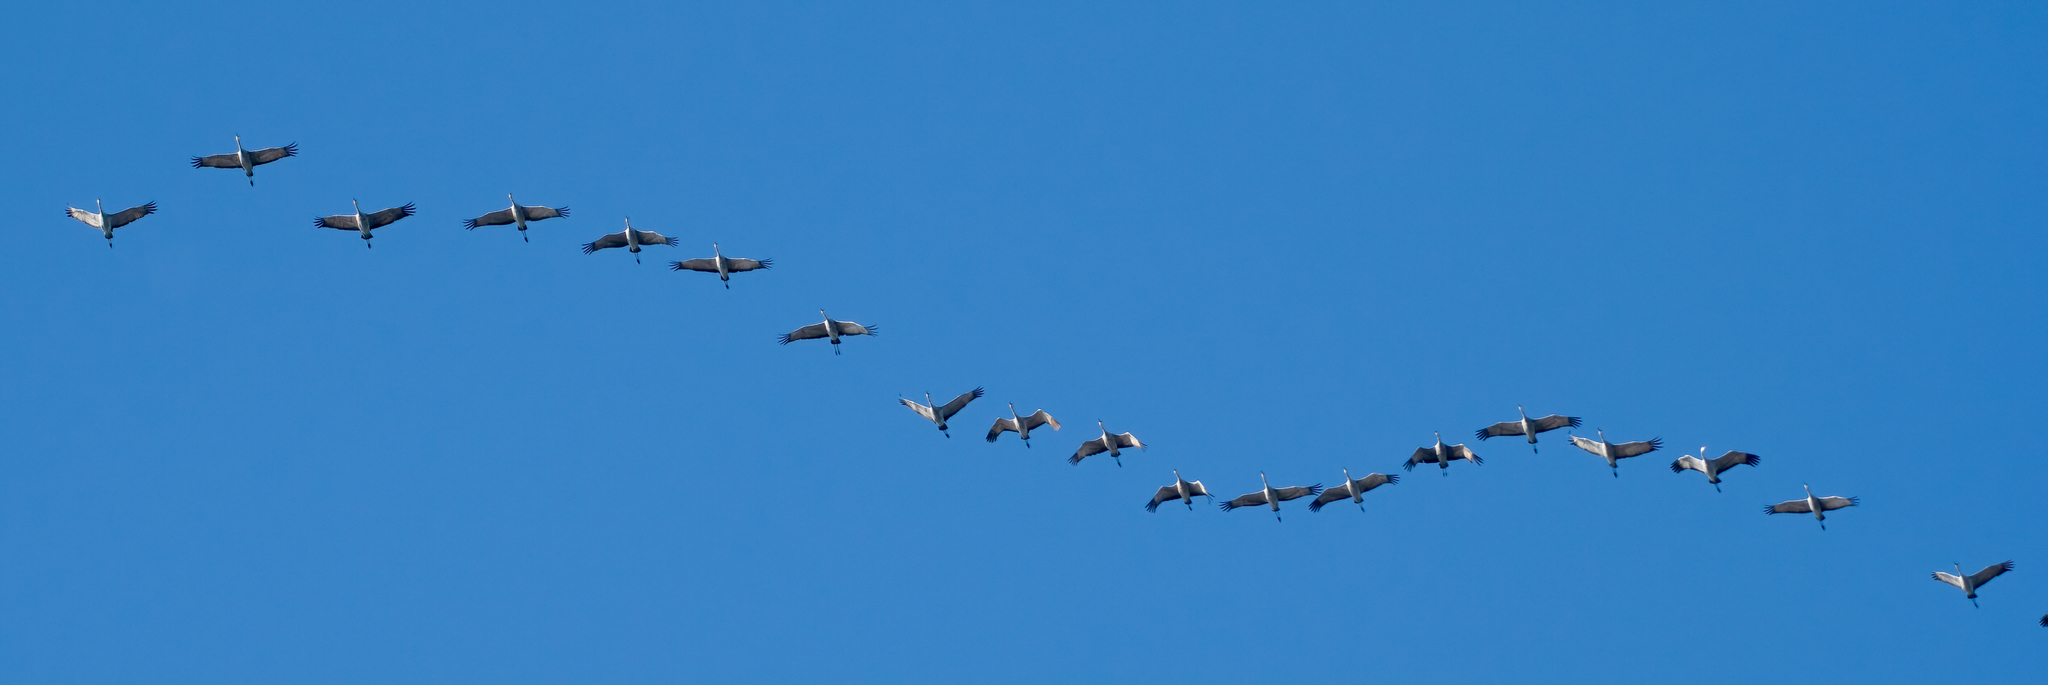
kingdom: Animalia
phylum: Chordata
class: Aves
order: Gruiformes
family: Gruidae
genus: Grus
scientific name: Grus canadensis
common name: Sandhill crane
